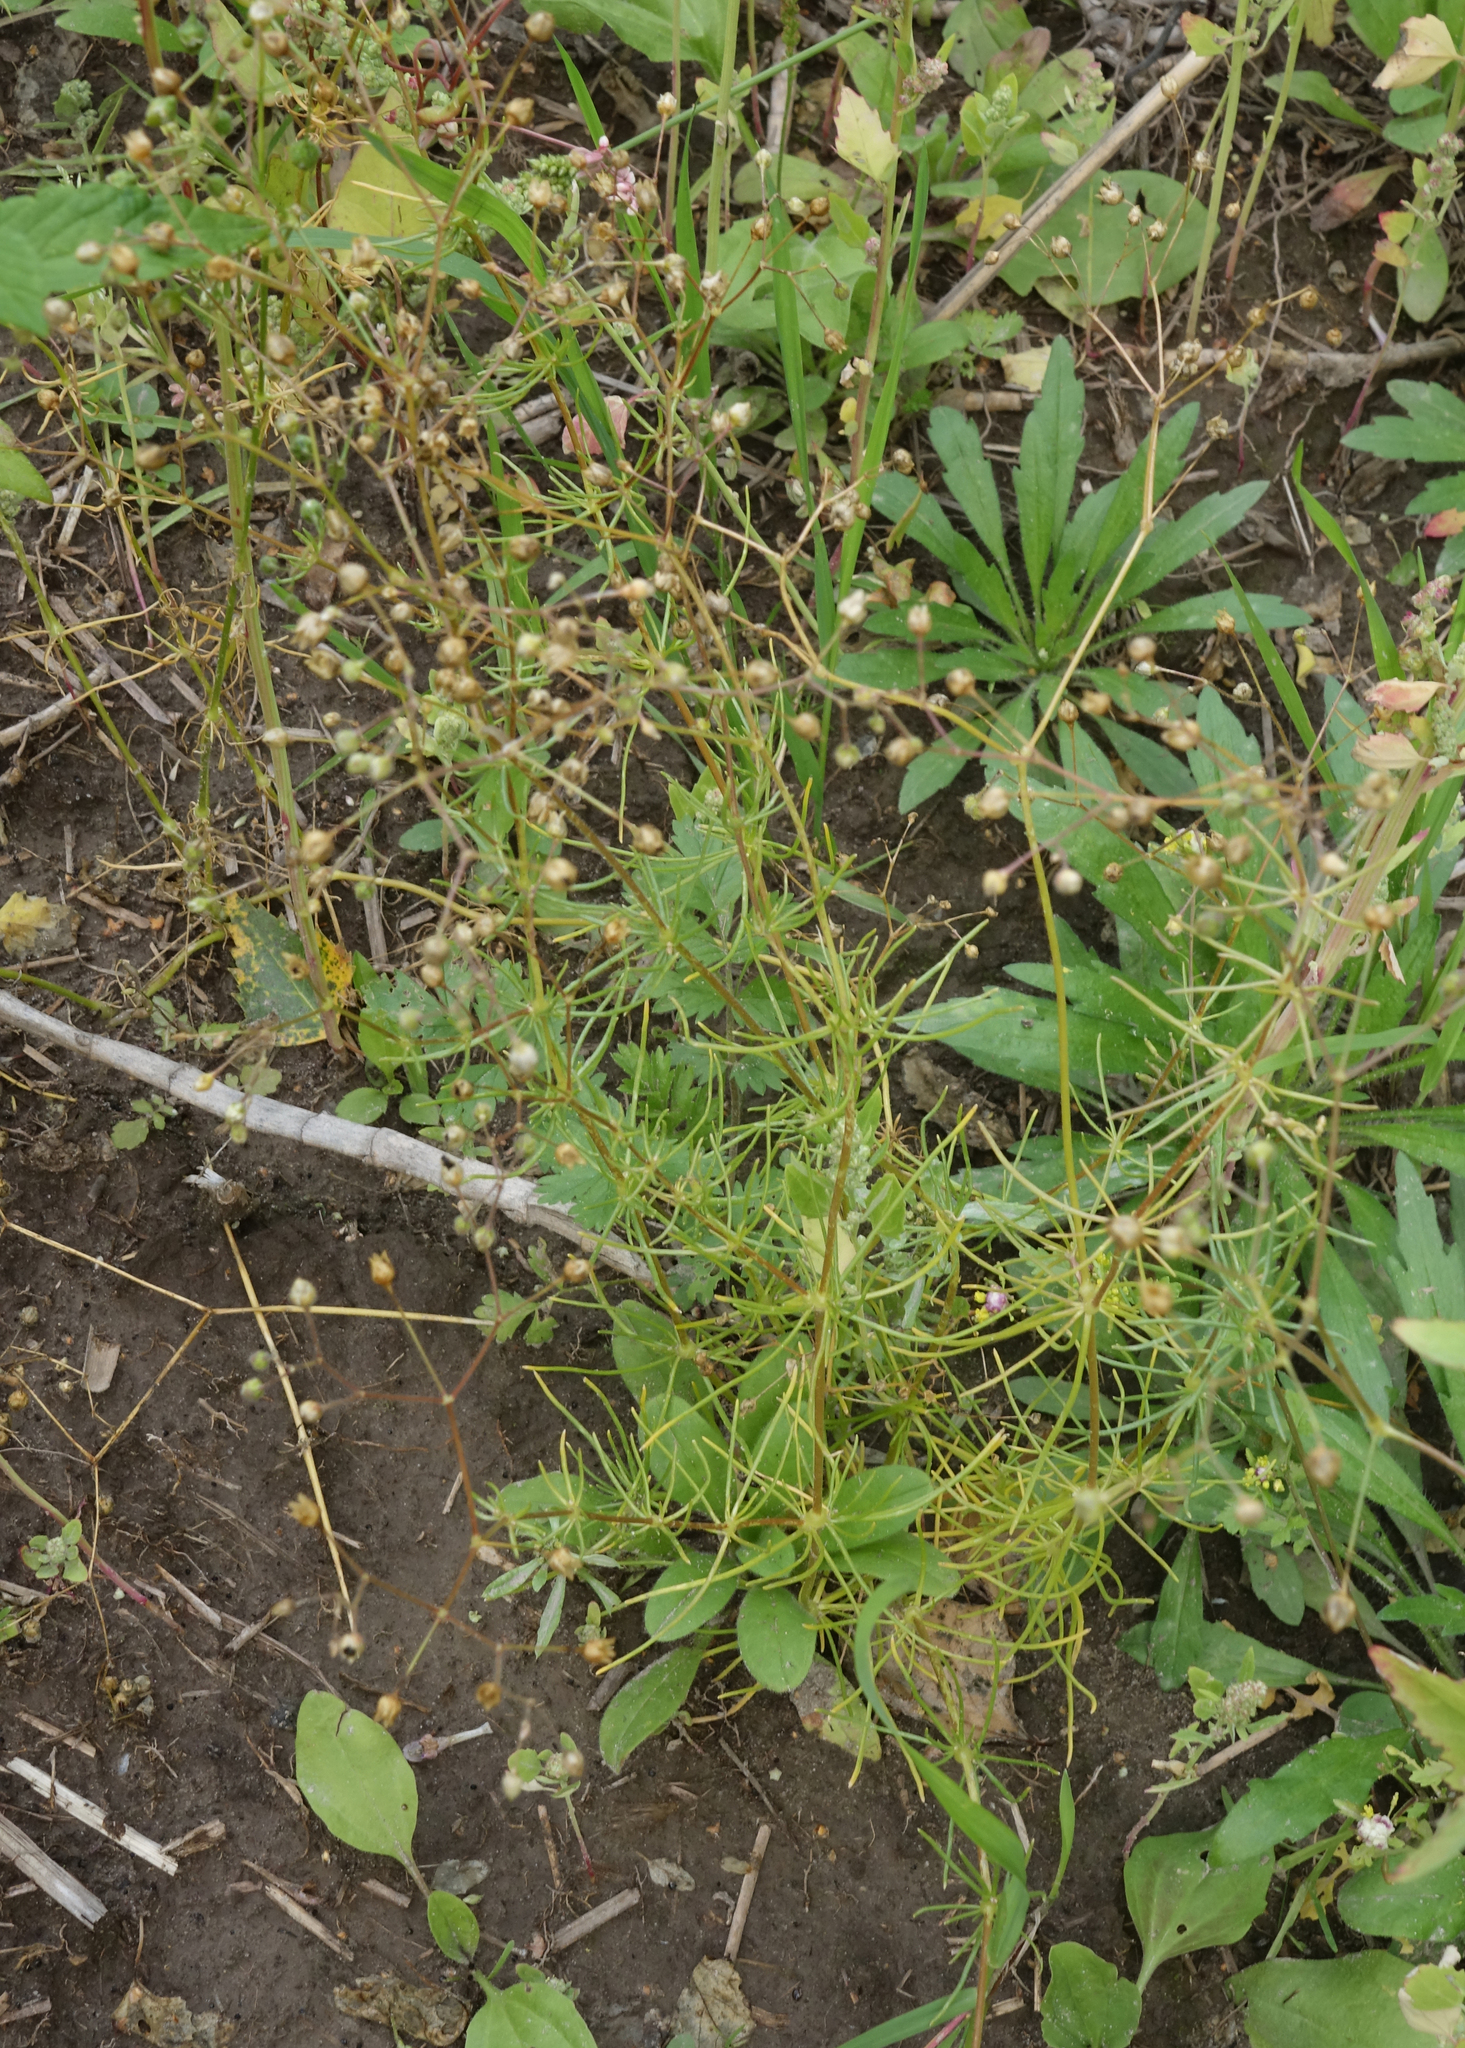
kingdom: Plantae
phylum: Tracheophyta
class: Magnoliopsida
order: Caryophyllales
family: Caryophyllaceae
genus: Spergula
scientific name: Spergula arvensis
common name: Corn spurrey
